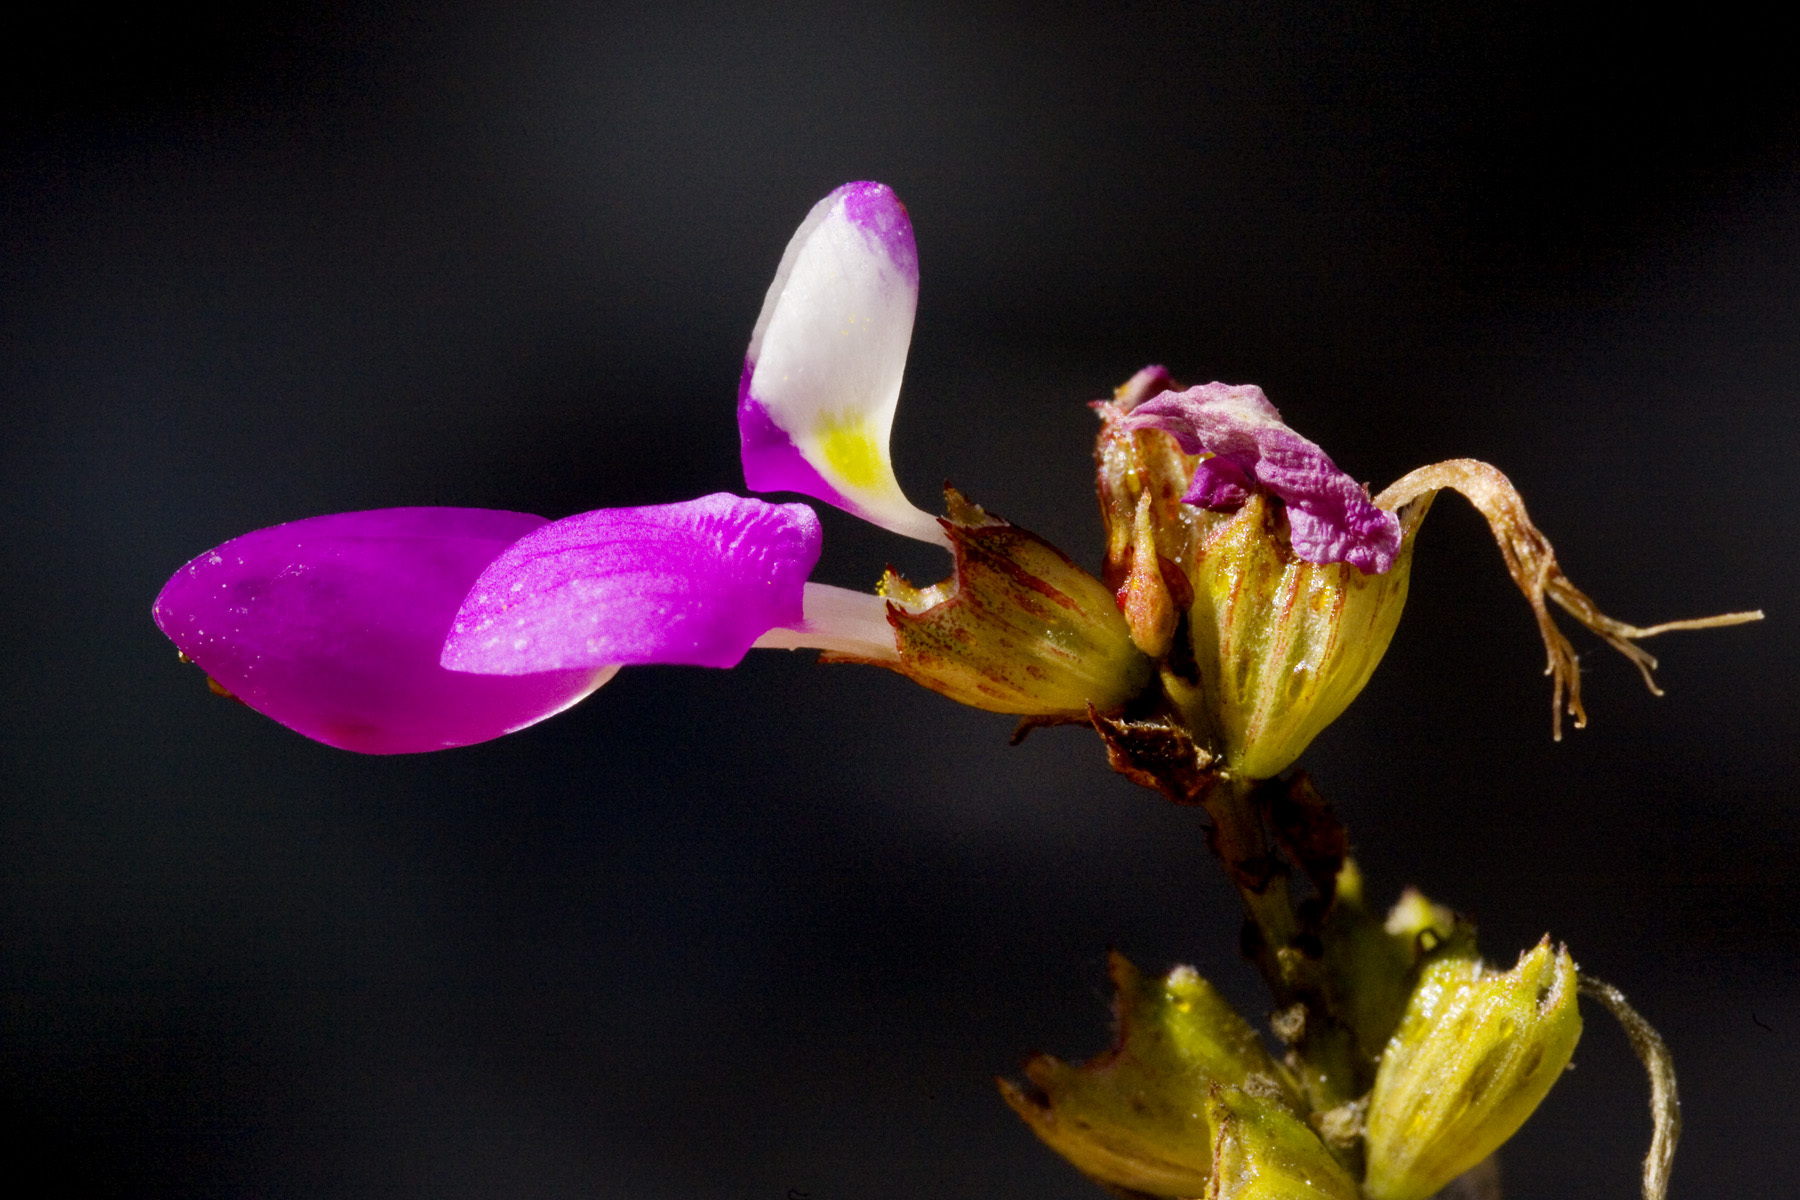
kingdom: Plantae
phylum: Tracheophyta
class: Magnoliopsida
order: Fabales
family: Fabaceae
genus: Dalea
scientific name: Dalea frutescens
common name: Black dalea
